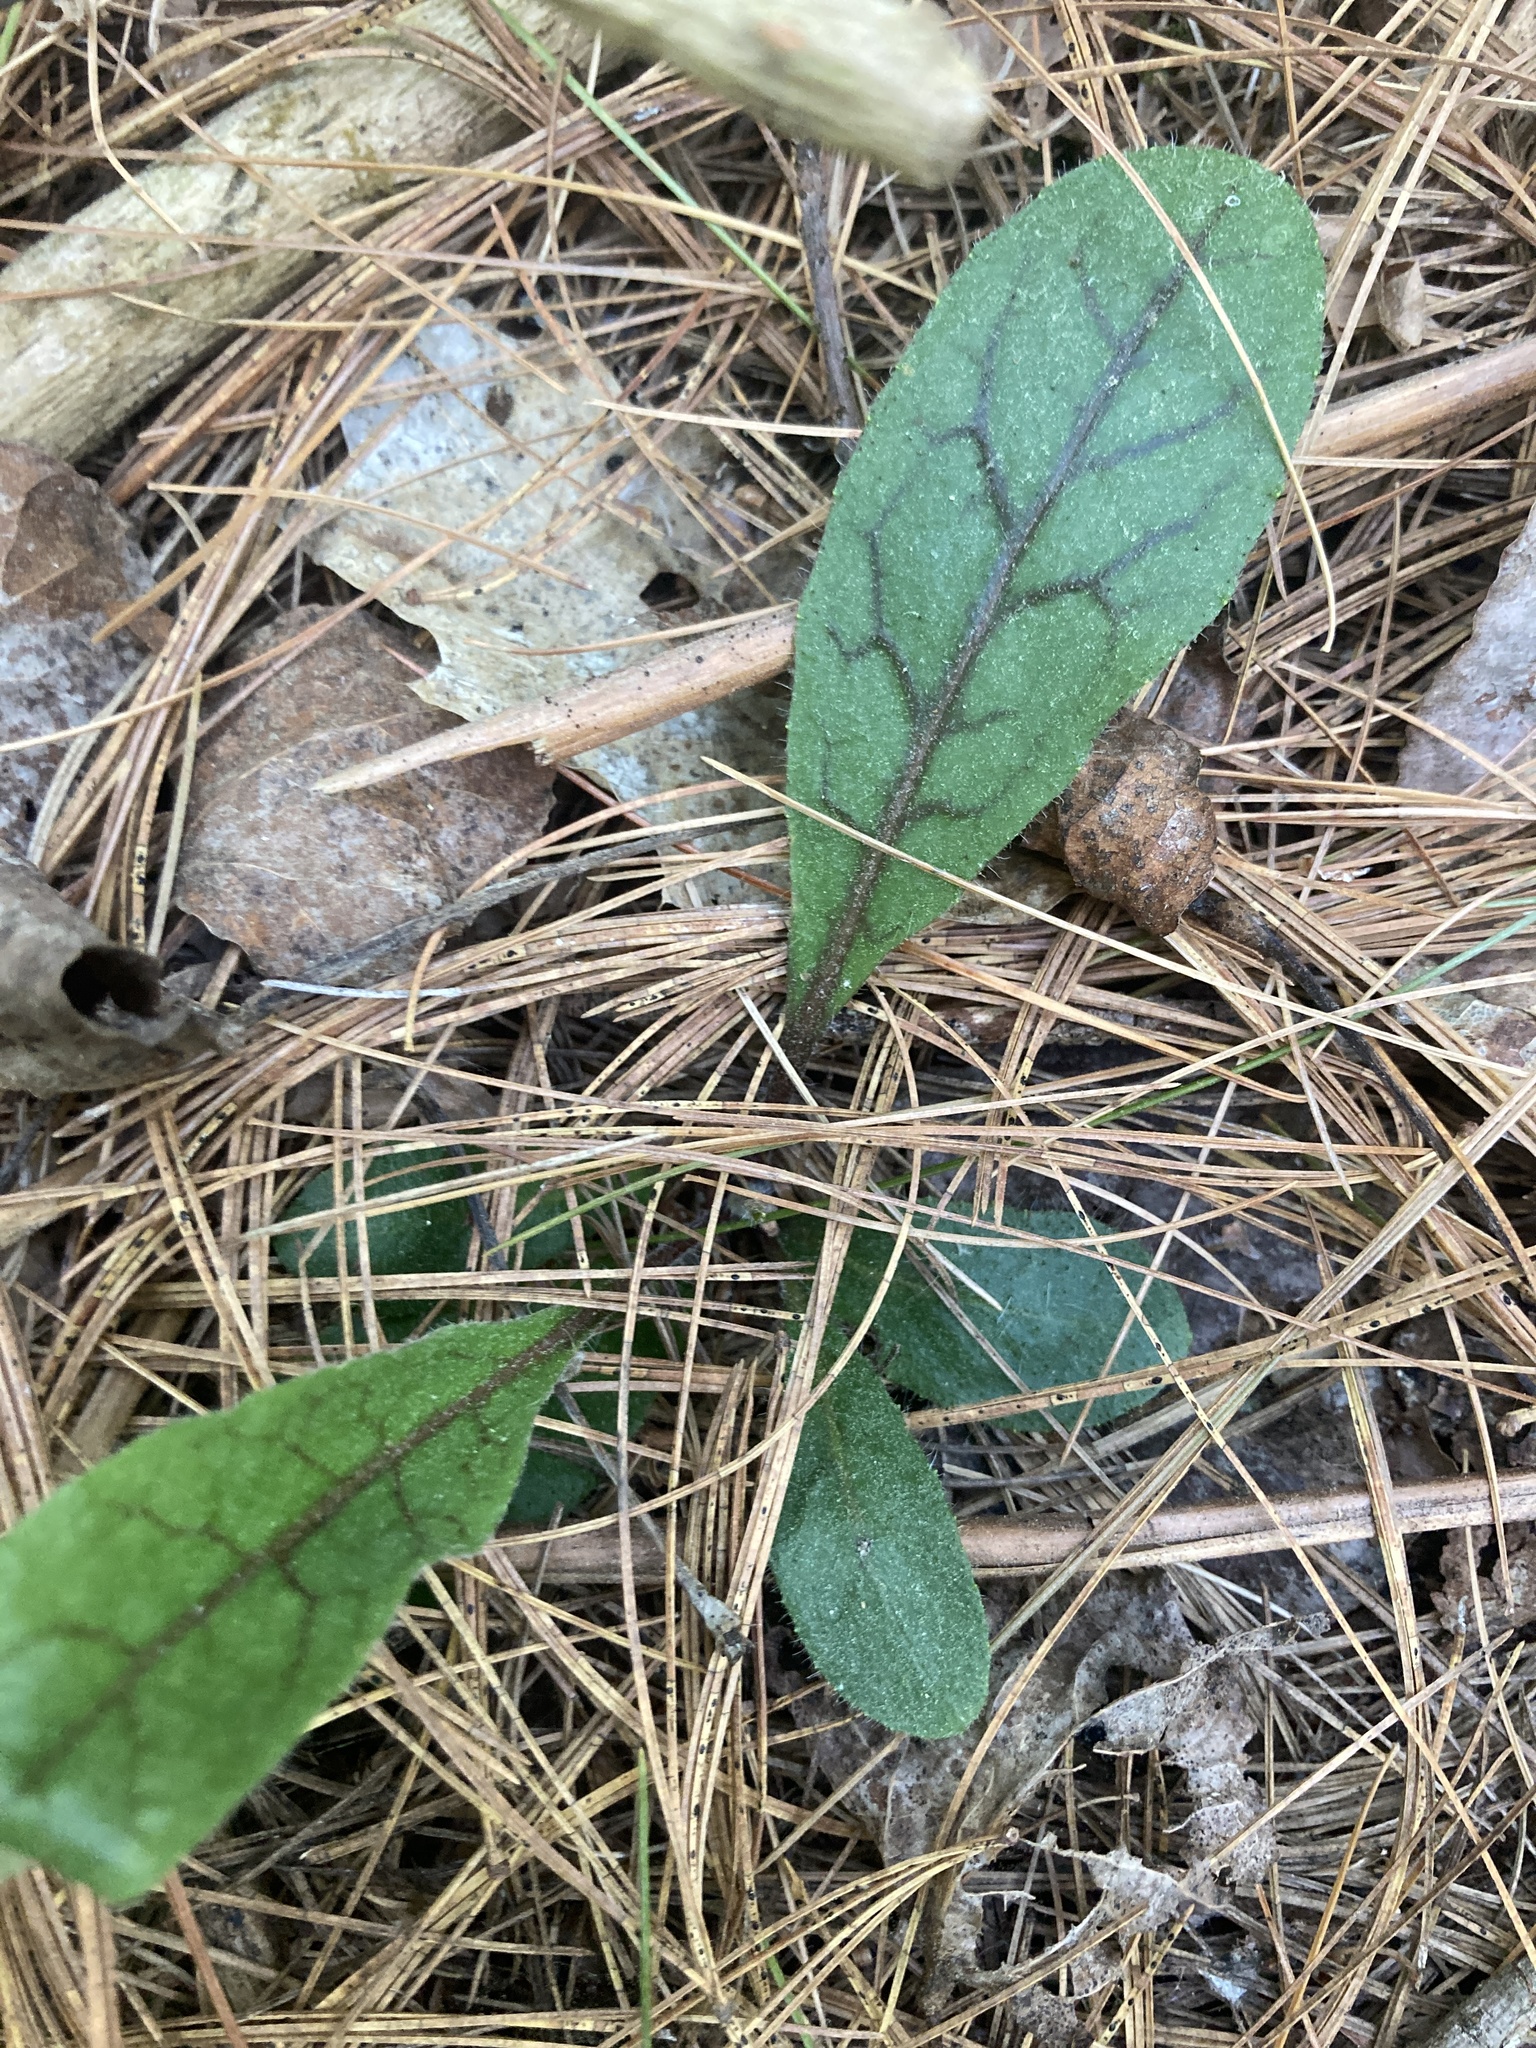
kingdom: Plantae
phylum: Tracheophyta
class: Magnoliopsida
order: Asterales
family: Asteraceae
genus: Hieracium
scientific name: Hieracium venosum
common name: Rattlesnake hawkweed
